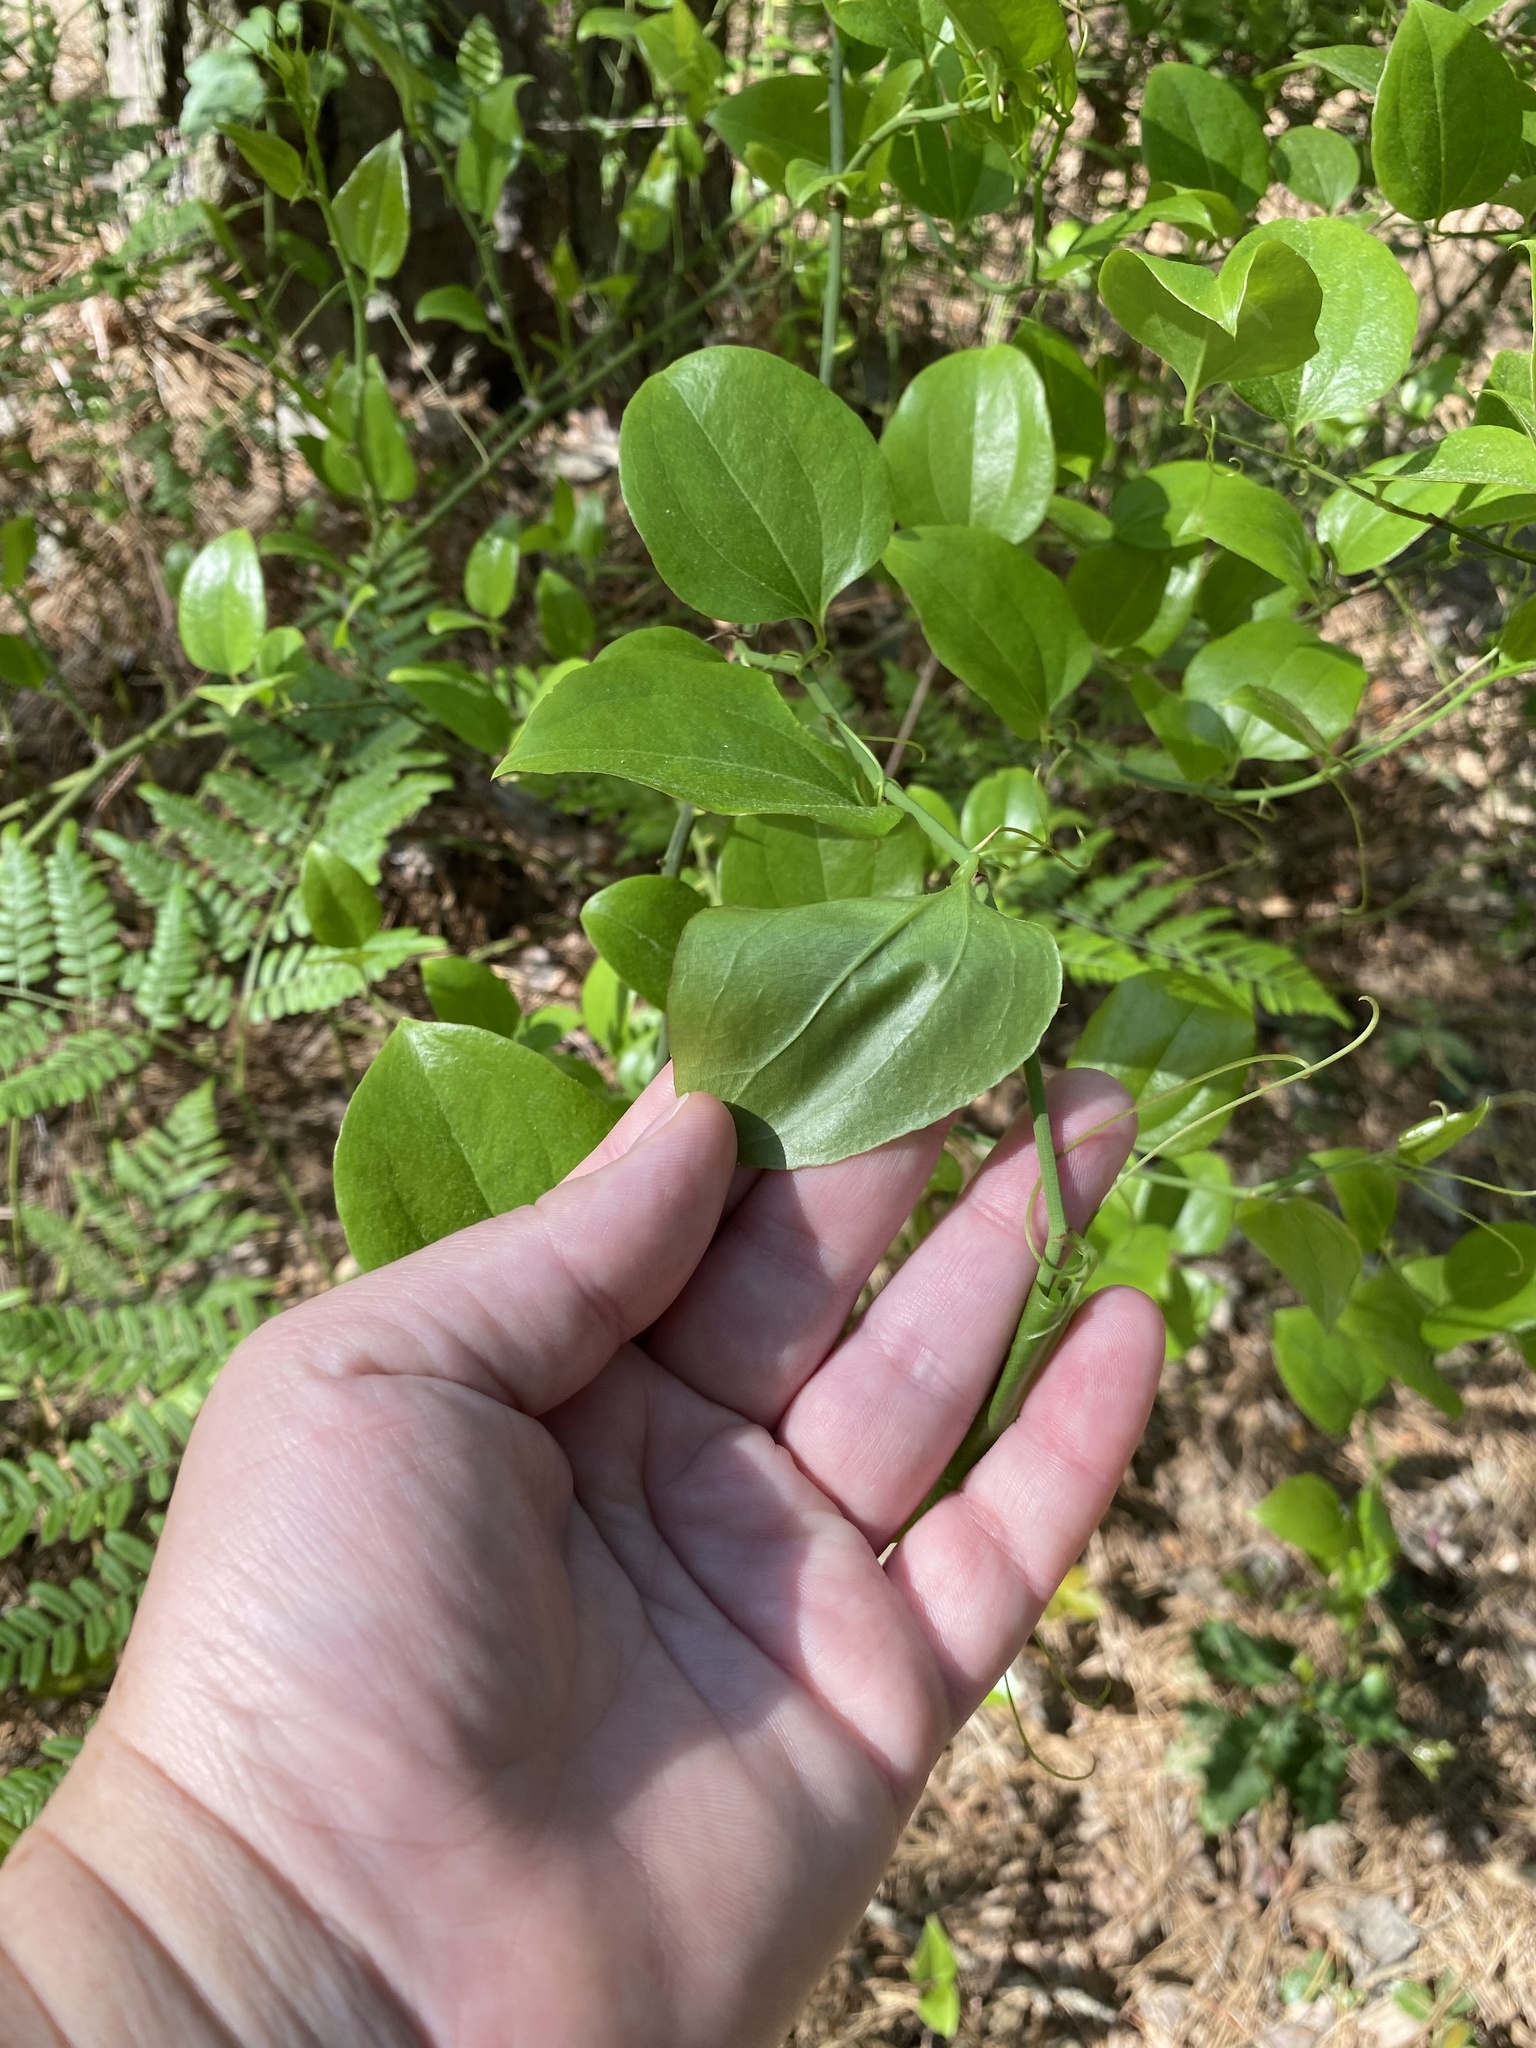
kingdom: Plantae
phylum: Tracheophyta
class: Liliopsida
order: Liliales
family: Smilacaceae
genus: Smilax
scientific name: Smilax rotundifolia
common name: Bullbriar
